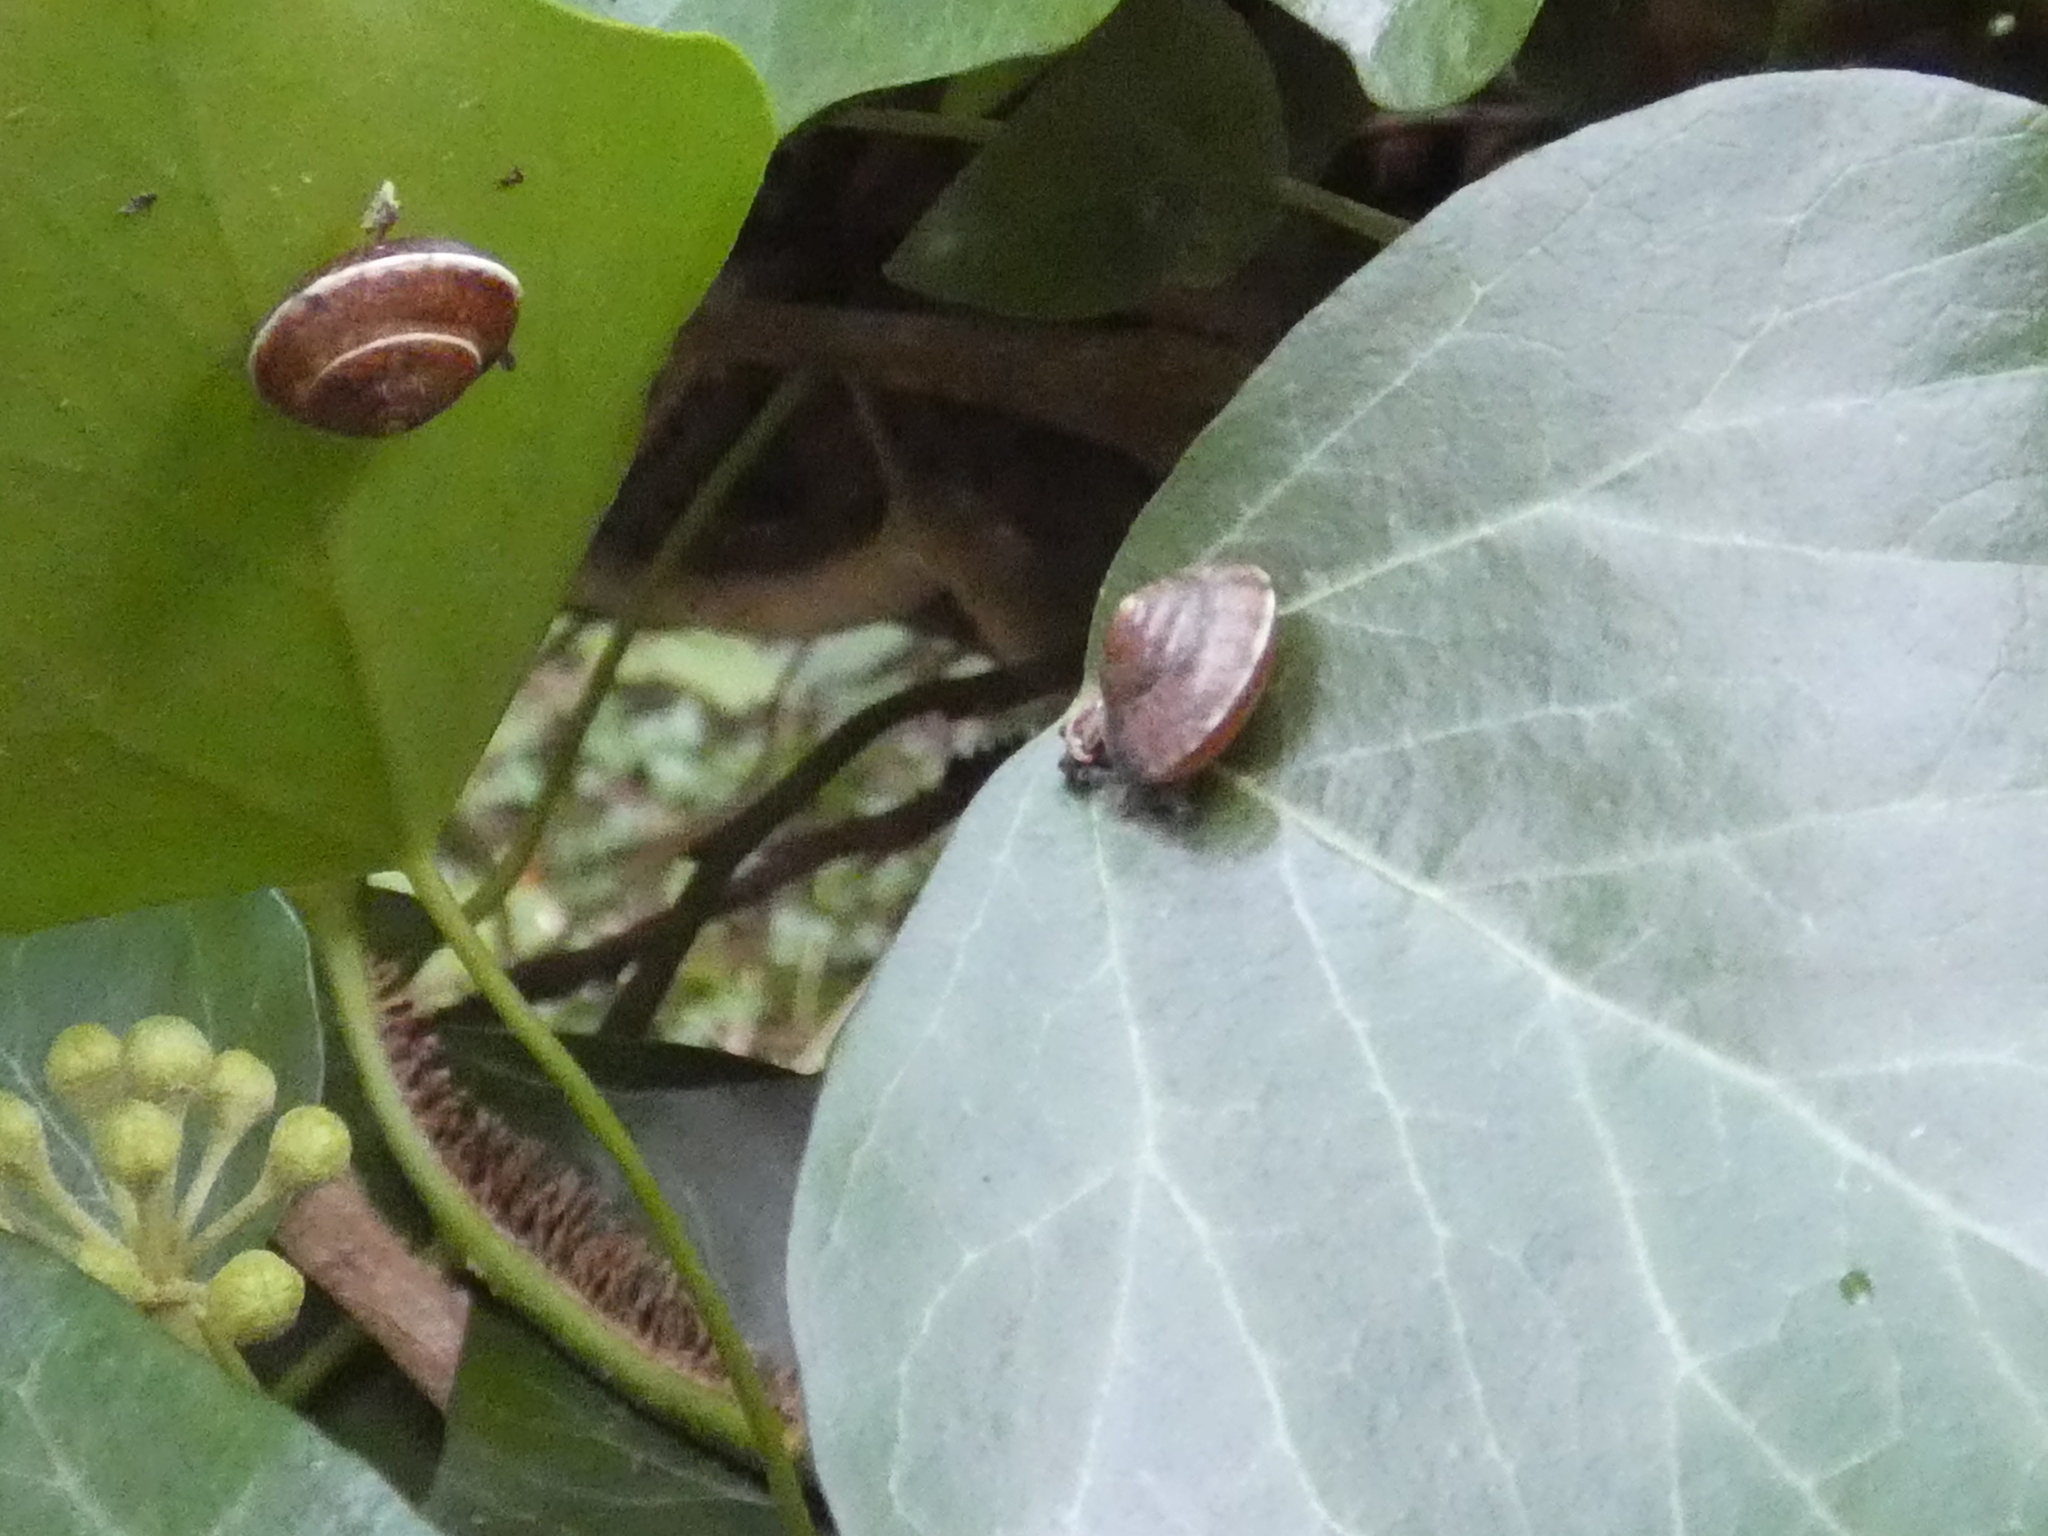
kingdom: Animalia
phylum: Mollusca
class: Gastropoda
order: Stylommatophora
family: Hygromiidae
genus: Hygromia
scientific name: Hygromia cinctella
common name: Girdled snail
